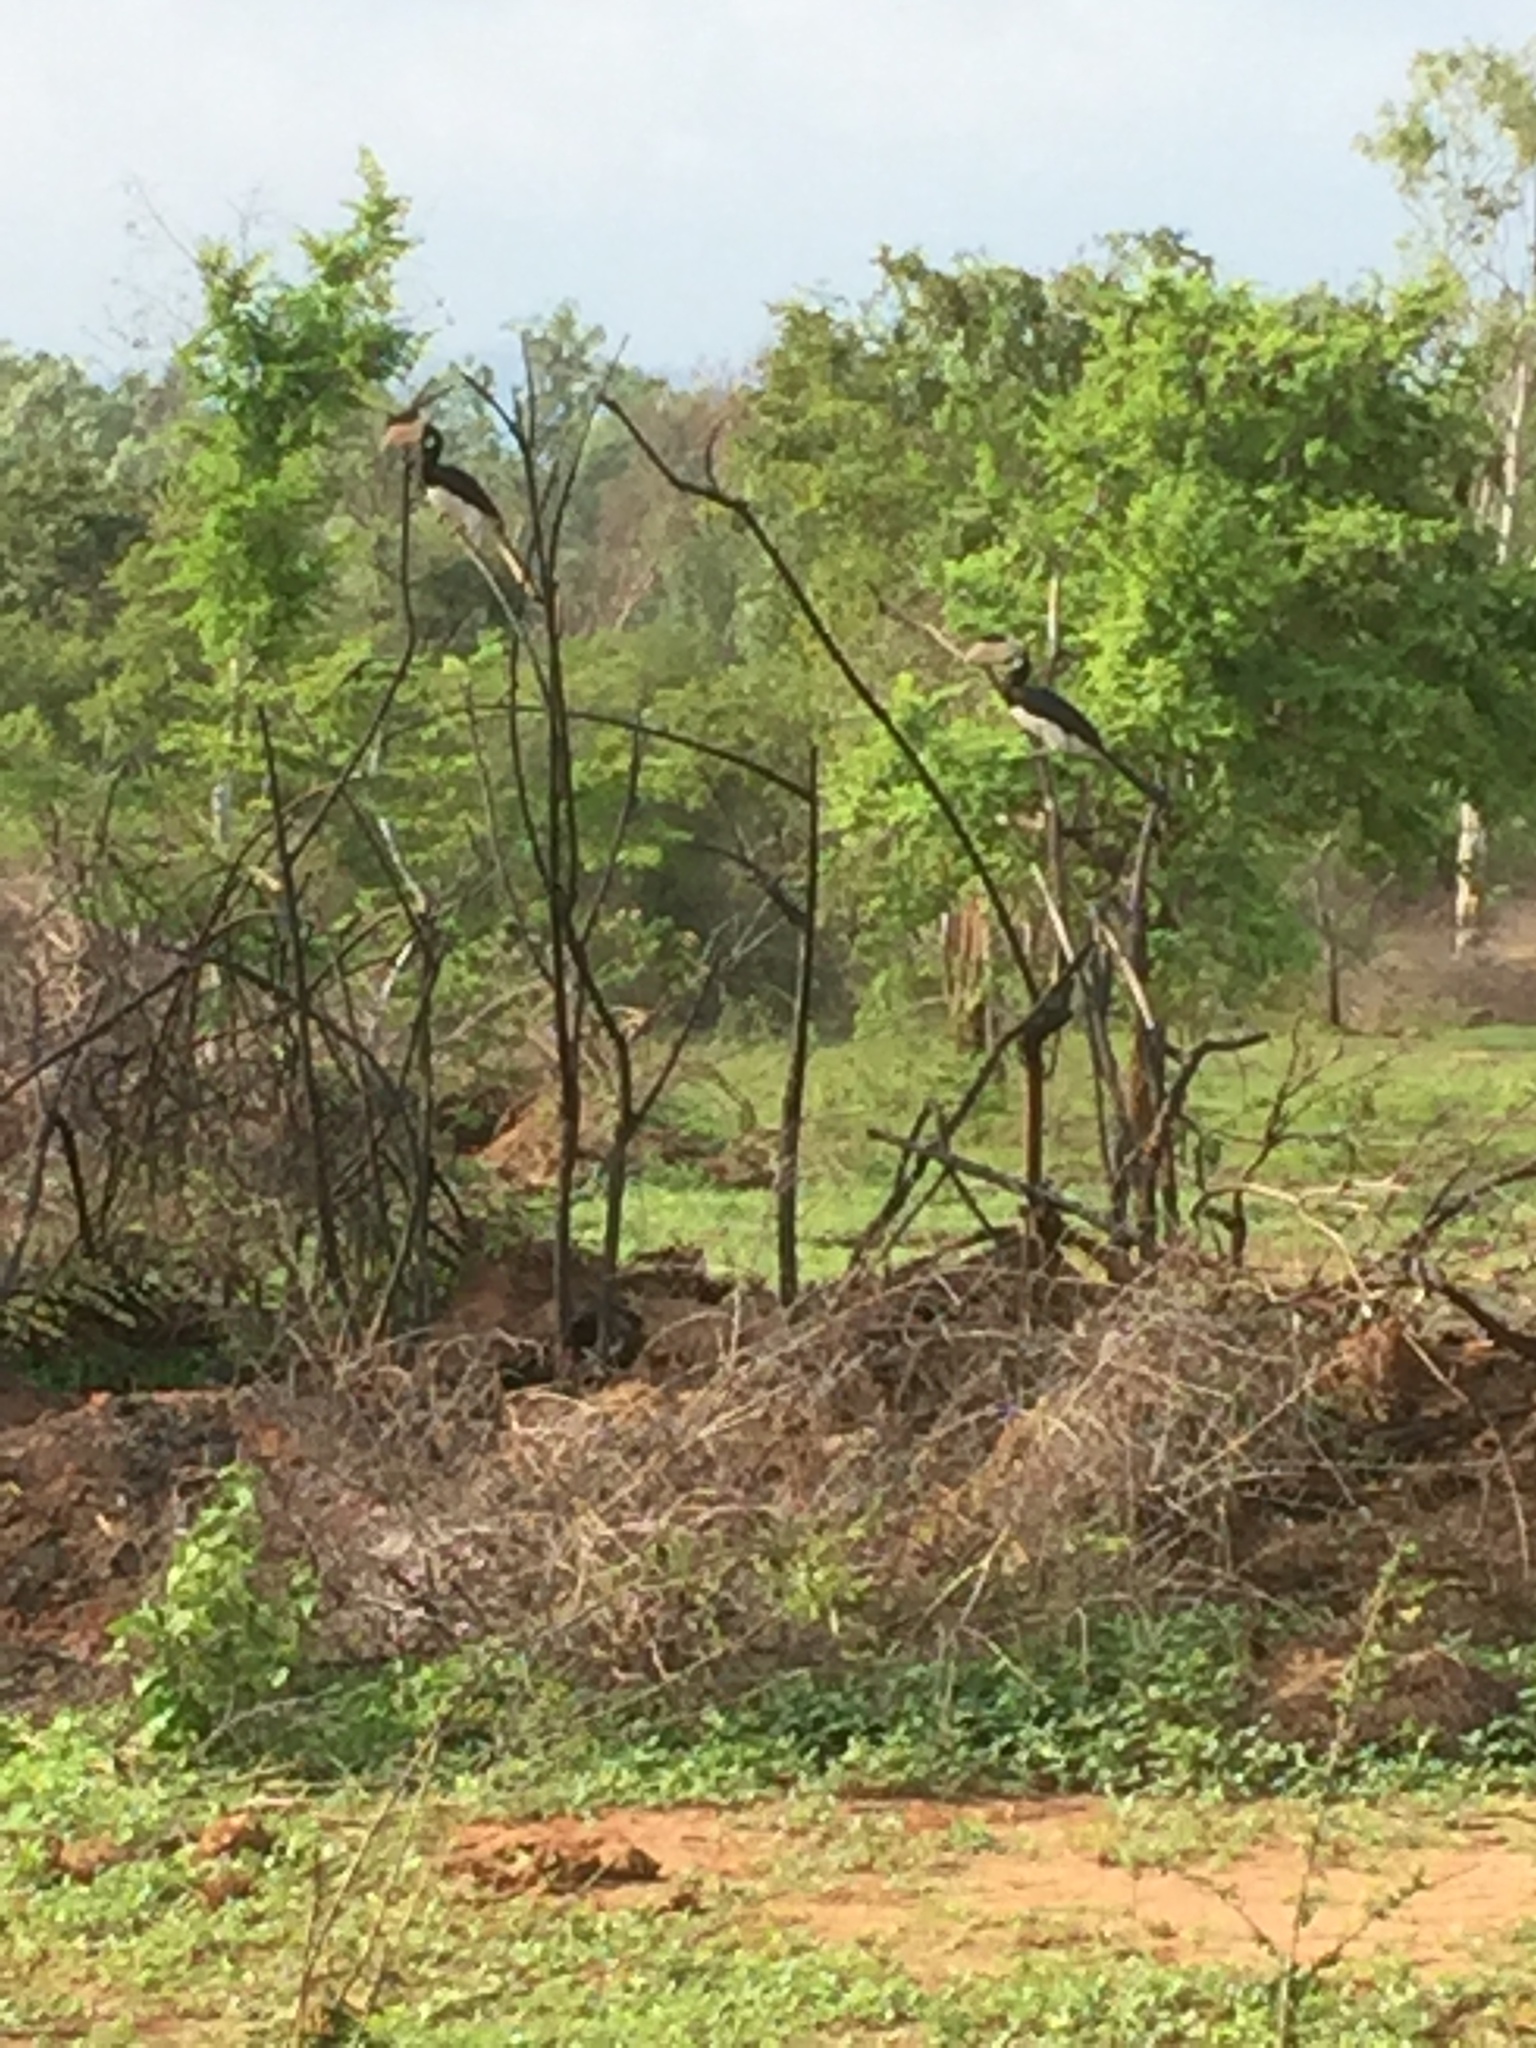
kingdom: Animalia
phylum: Chordata
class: Aves
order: Bucerotiformes
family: Bucerotidae
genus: Anthracoceros
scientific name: Anthracoceros coronatus
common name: Malabar pied hornbill
